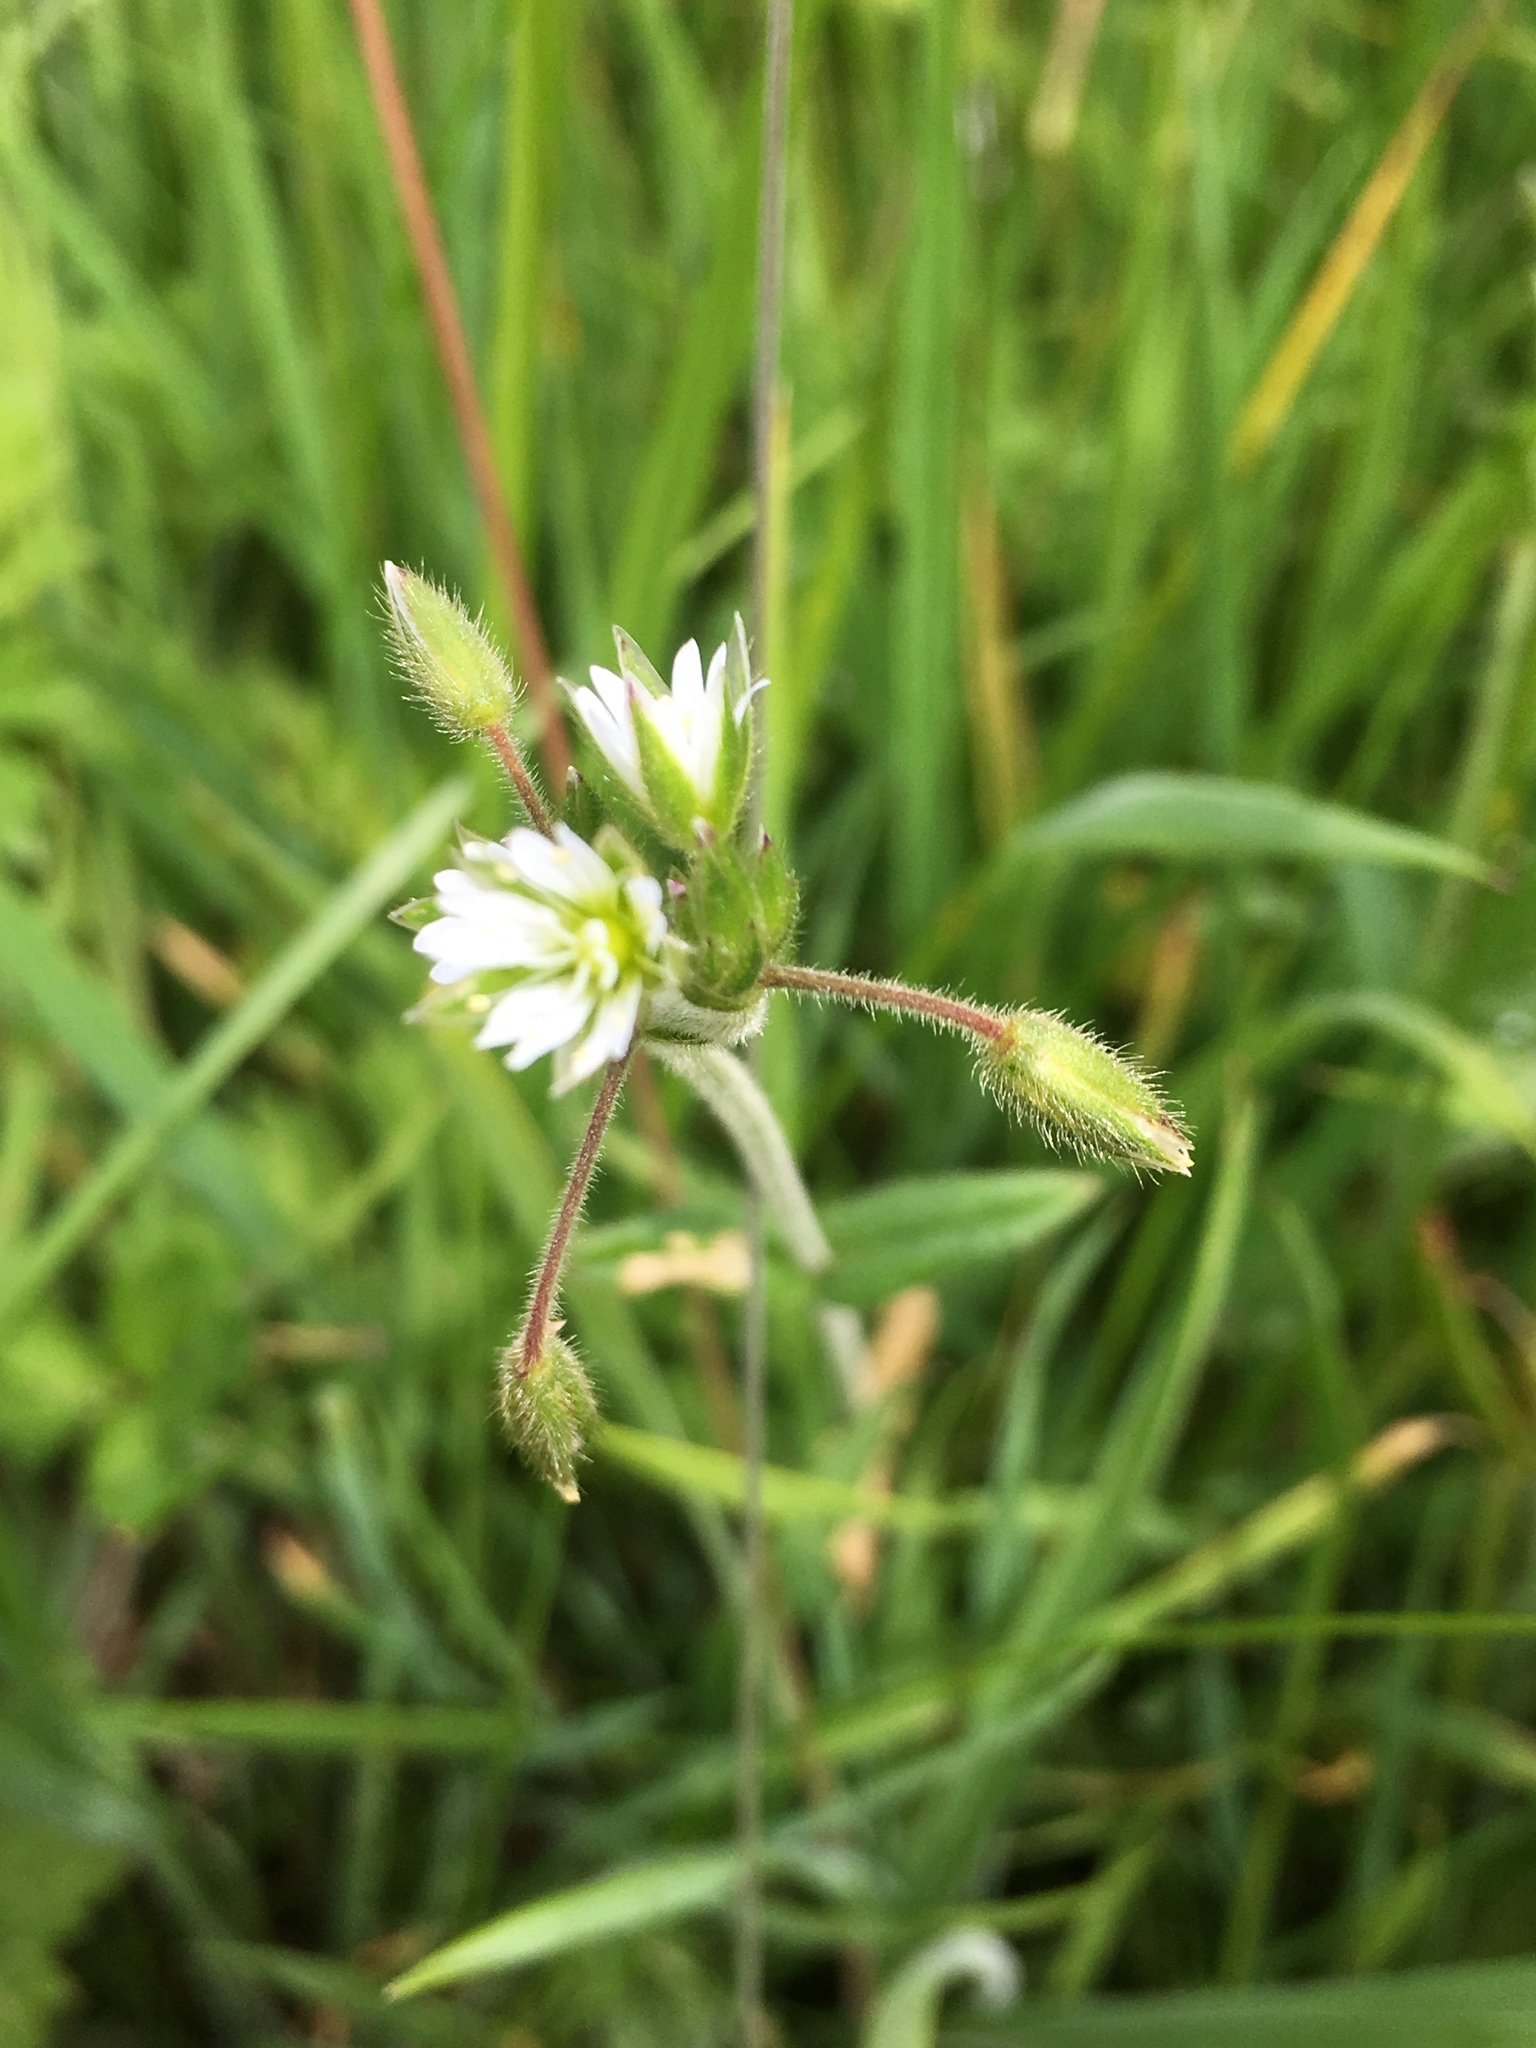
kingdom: Plantae
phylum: Tracheophyta
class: Magnoliopsida
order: Caryophyllales
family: Caryophyllaceae
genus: Cerastium
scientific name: Cerastium fontanum
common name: Common mouse-ear
